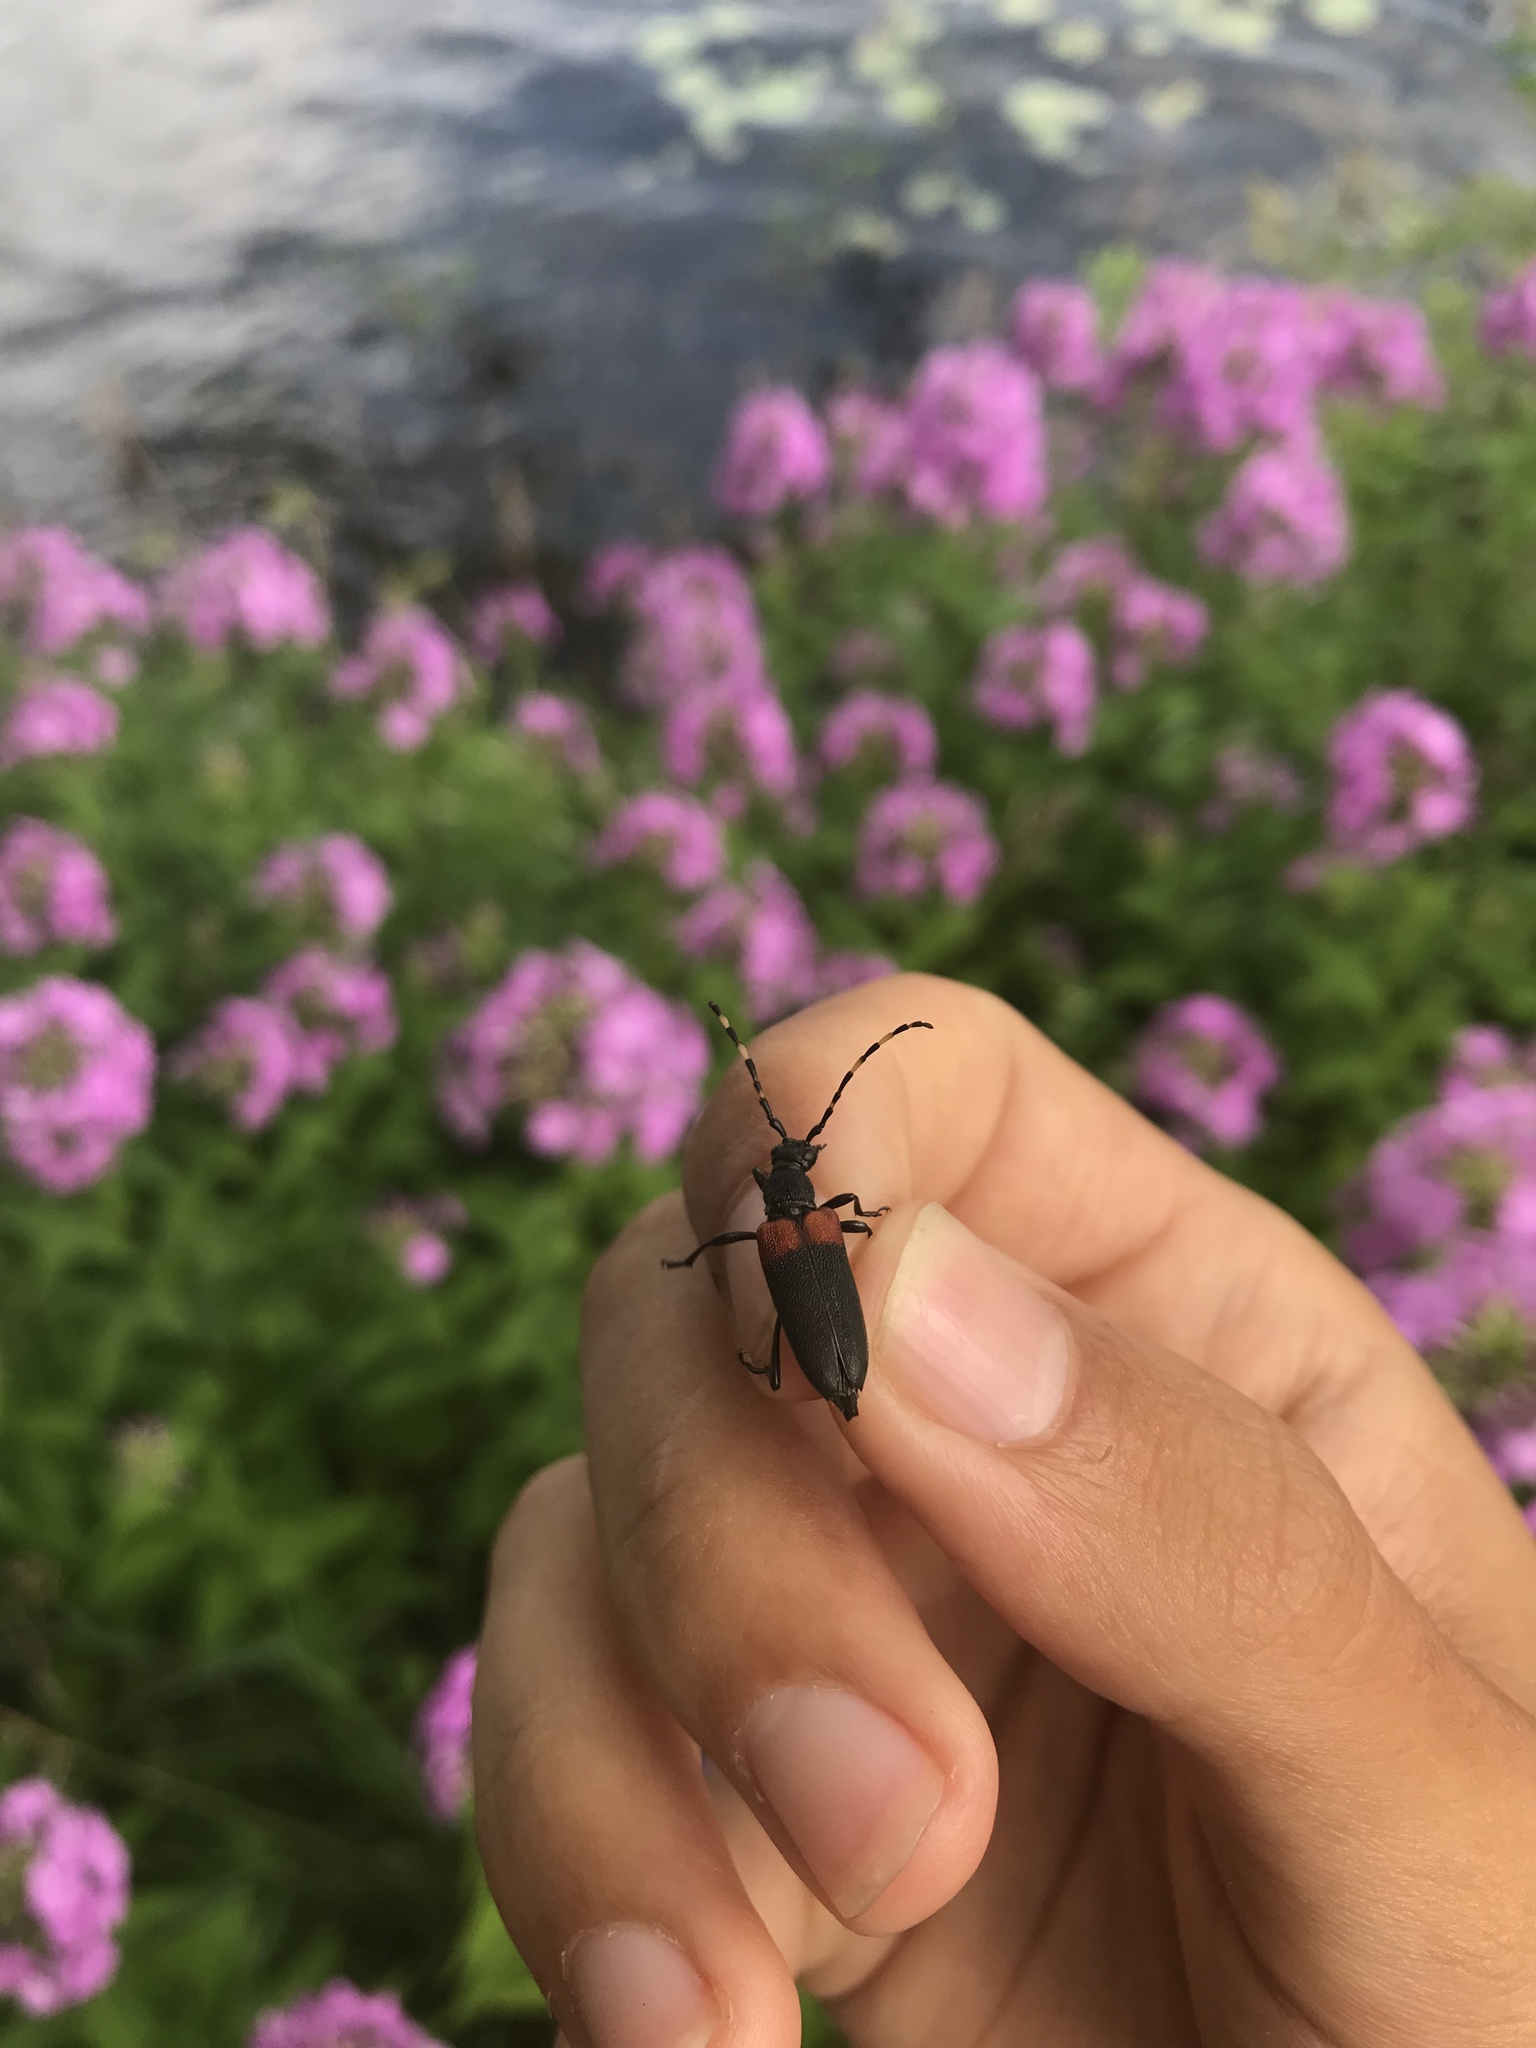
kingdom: Animalia
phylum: Arthropoda
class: Insecta
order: Coleoptera
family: Cerambycidae
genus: Stictoleptura
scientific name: Stictoleptura canadensis
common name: Red-shouldered pine borer
